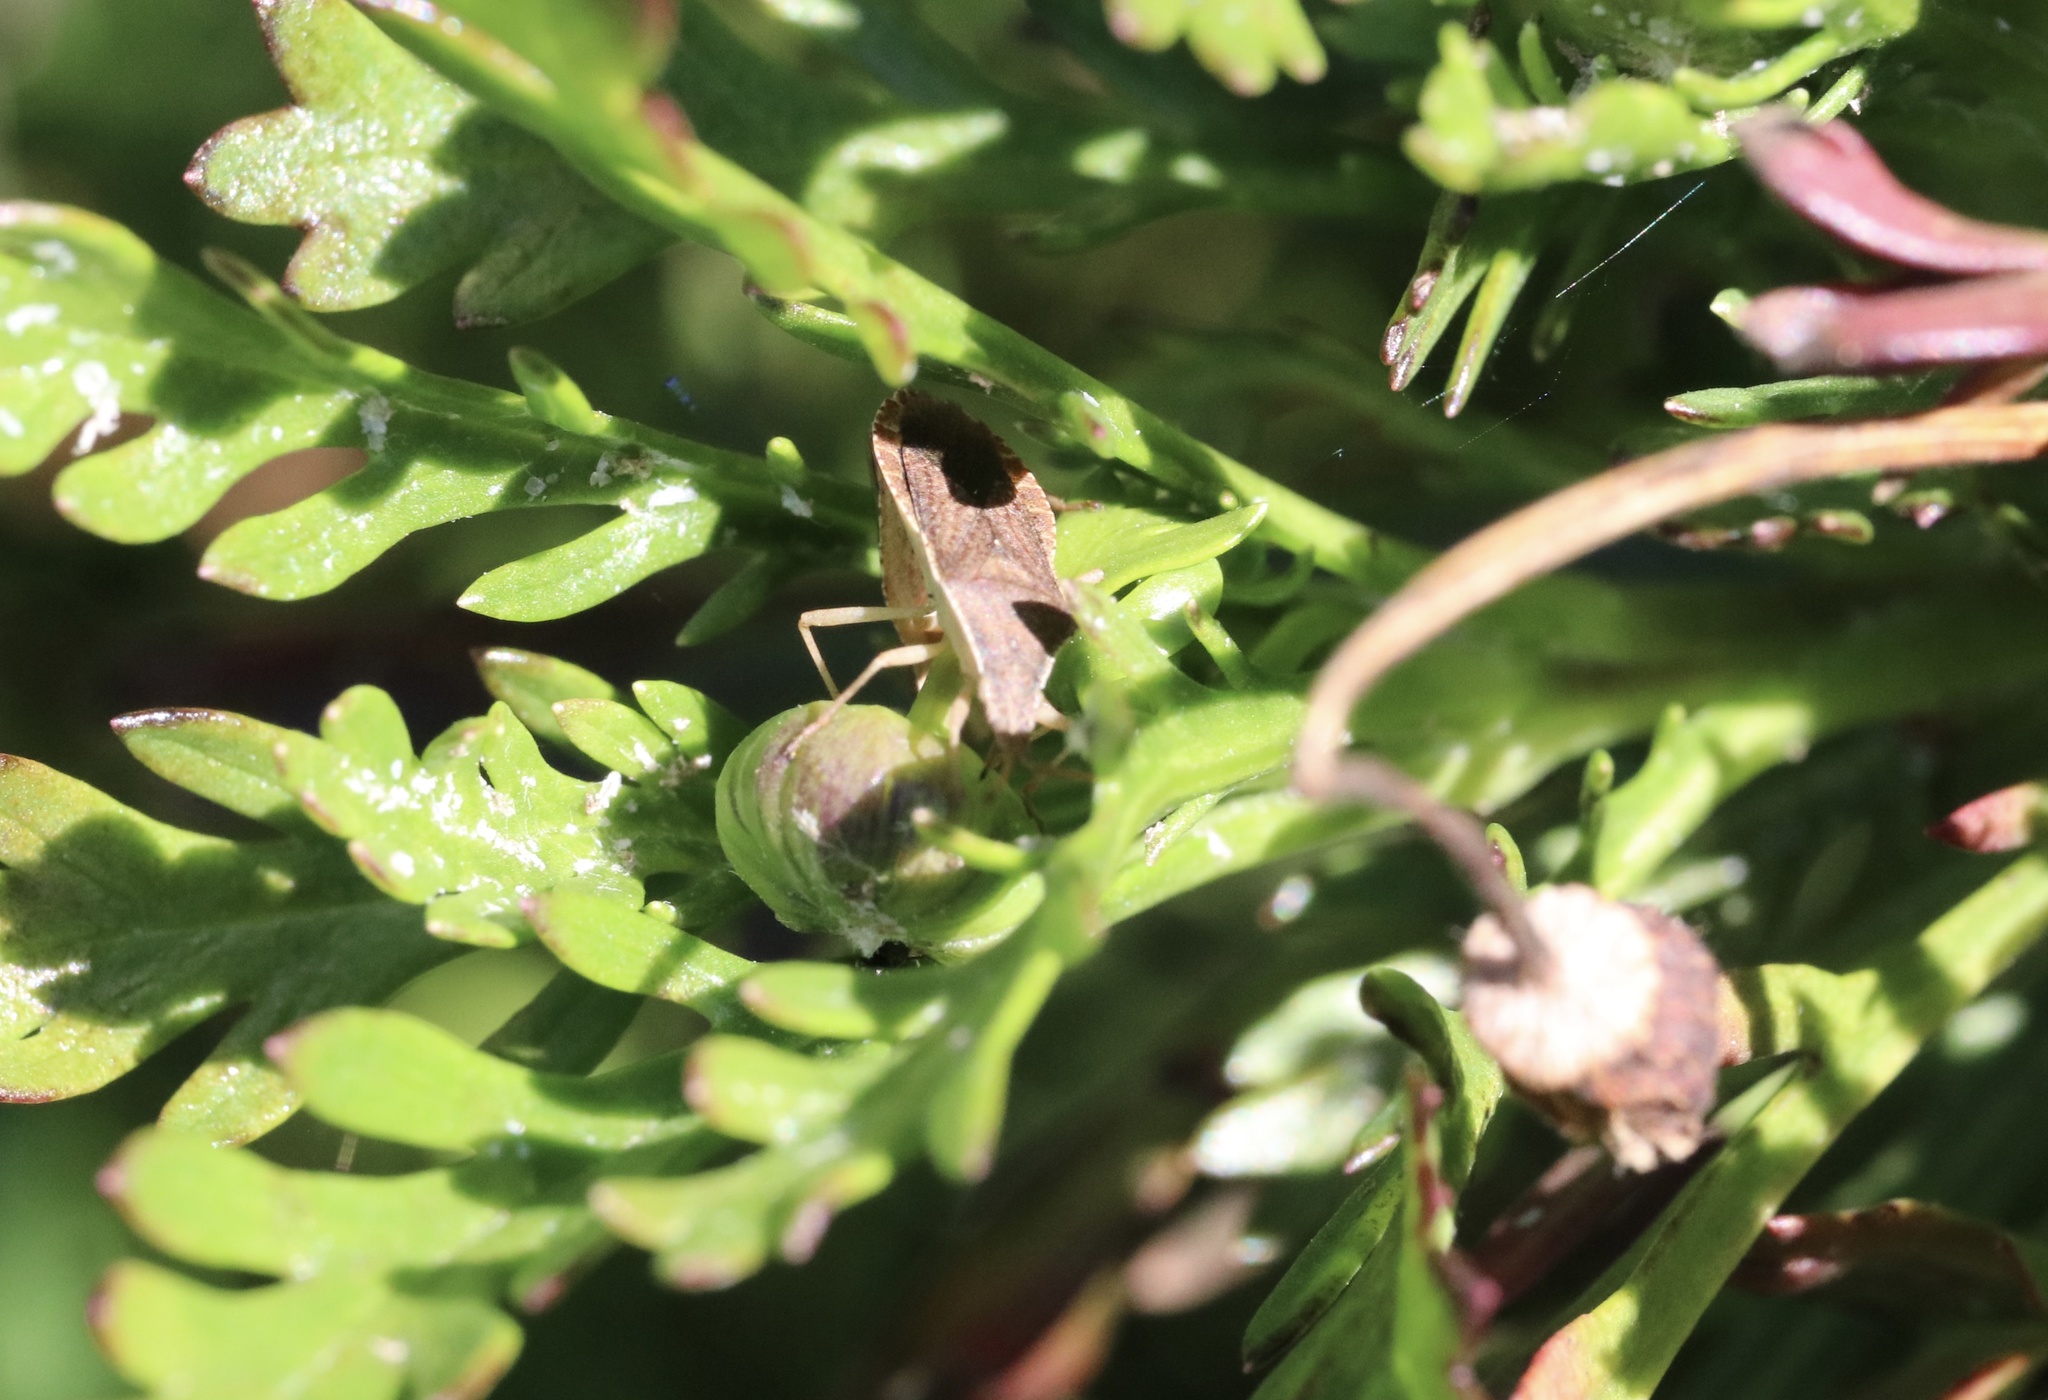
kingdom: Animalia
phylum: Arthropoda
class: Insecta
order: Hemiptera
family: Coreidae
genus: Althos
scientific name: Althos
